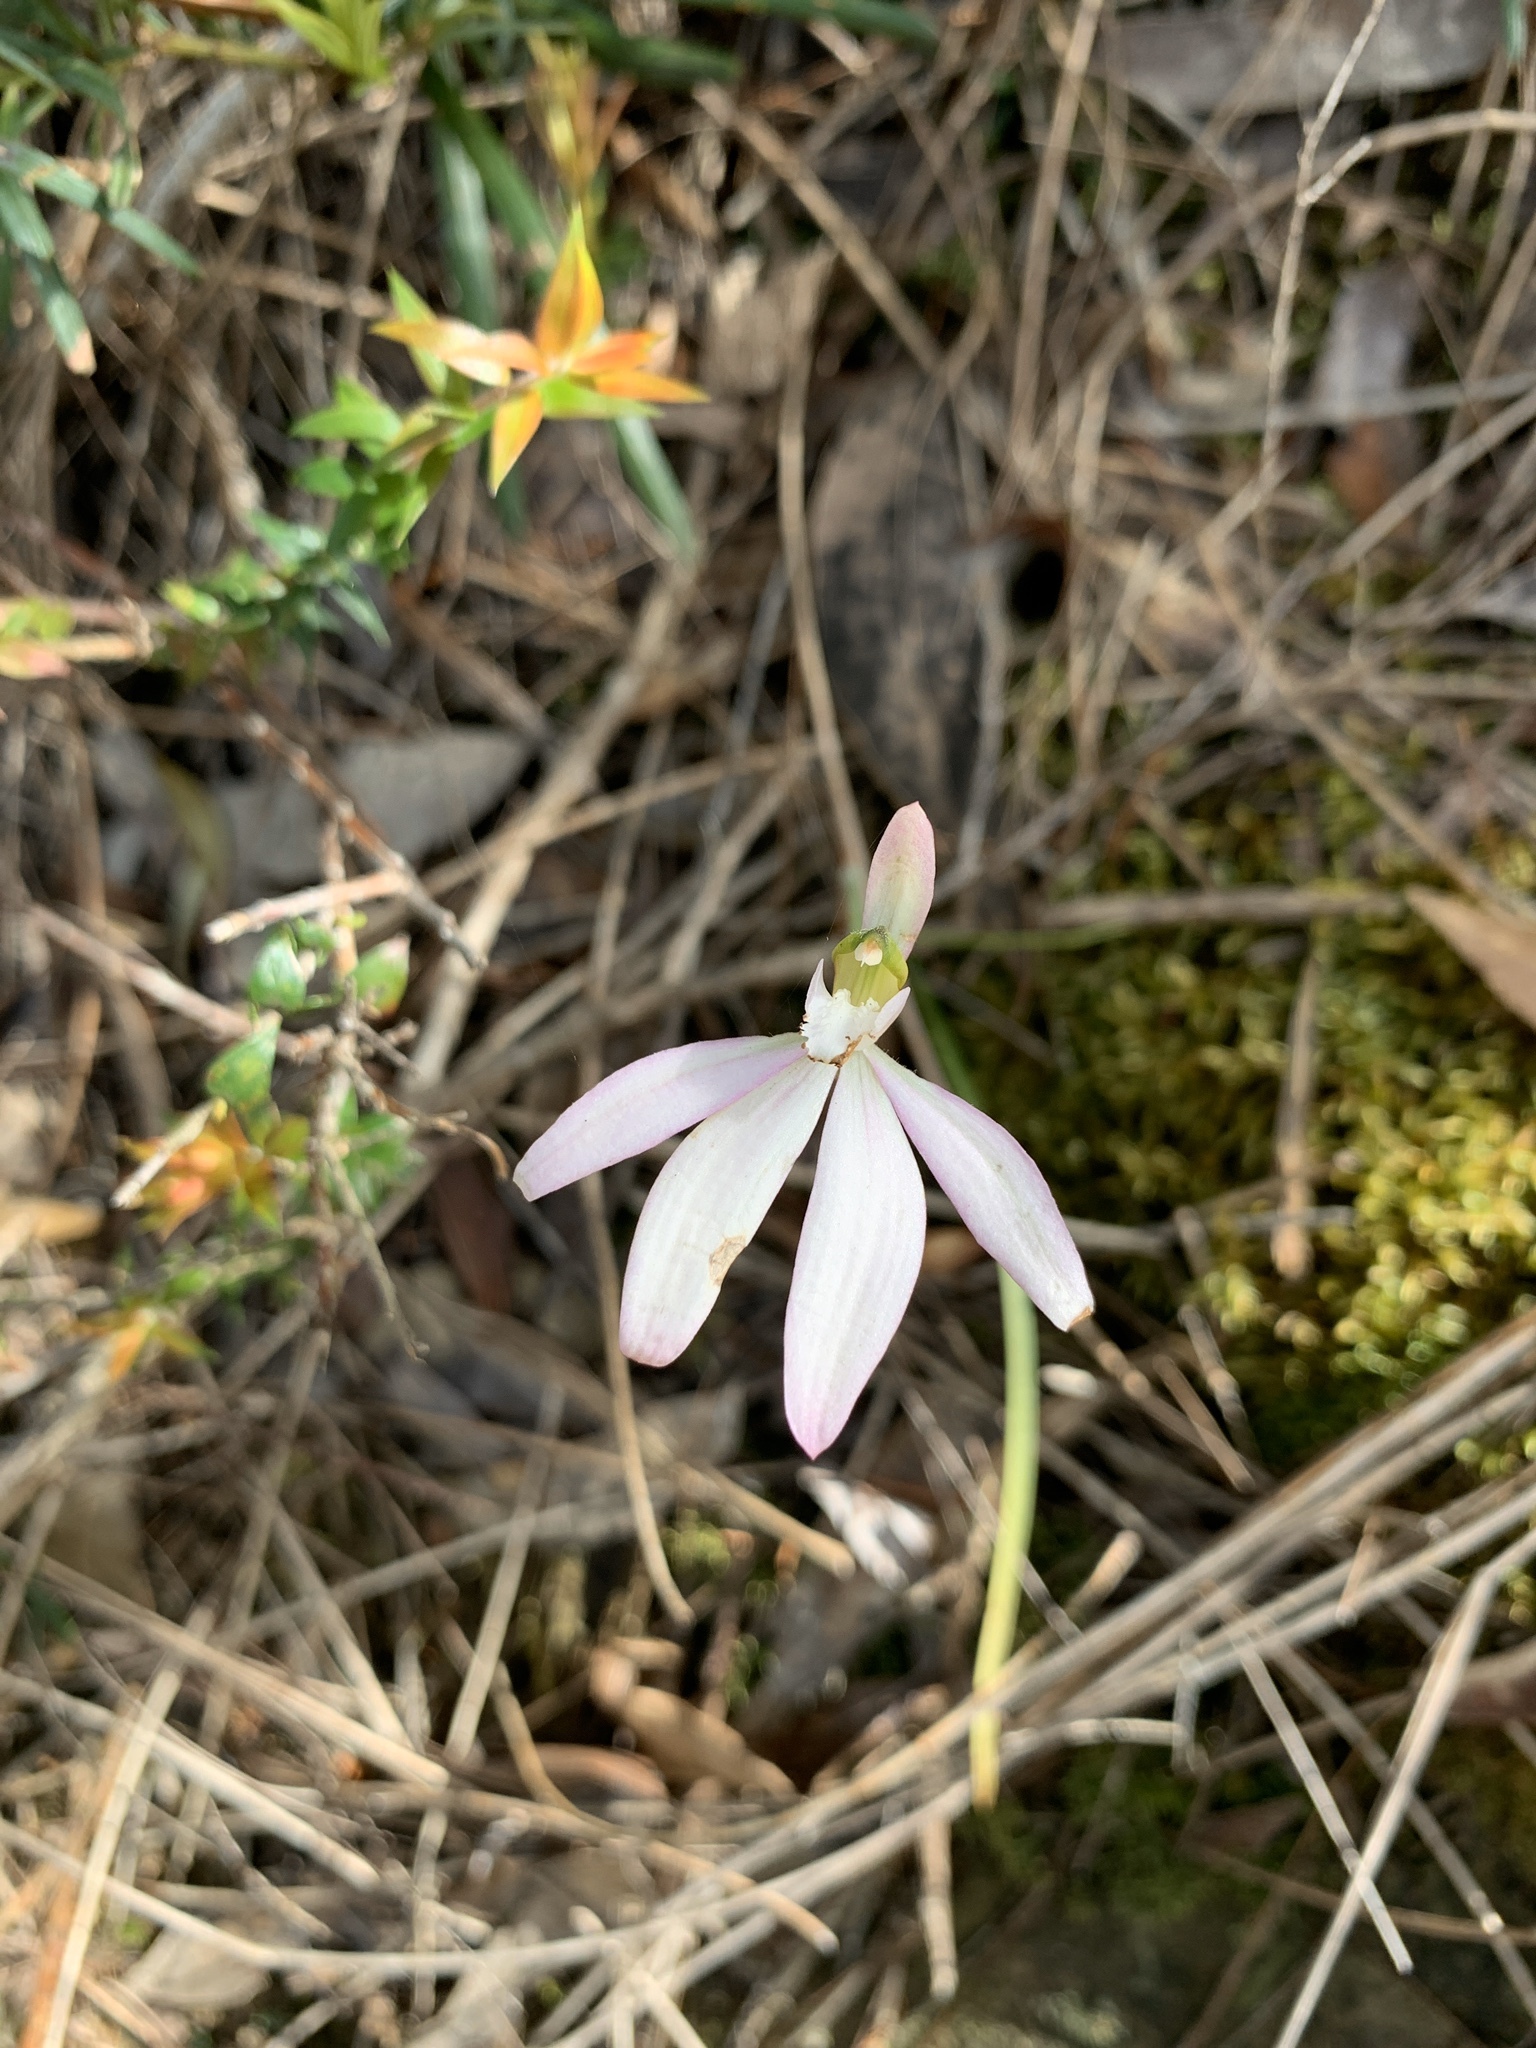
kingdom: Plantae
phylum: Tracheophyta
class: Liliopsida
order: Asparagales
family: Orchidaceae
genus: Caladenia
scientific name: Caladenia catenata
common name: White caladenia
